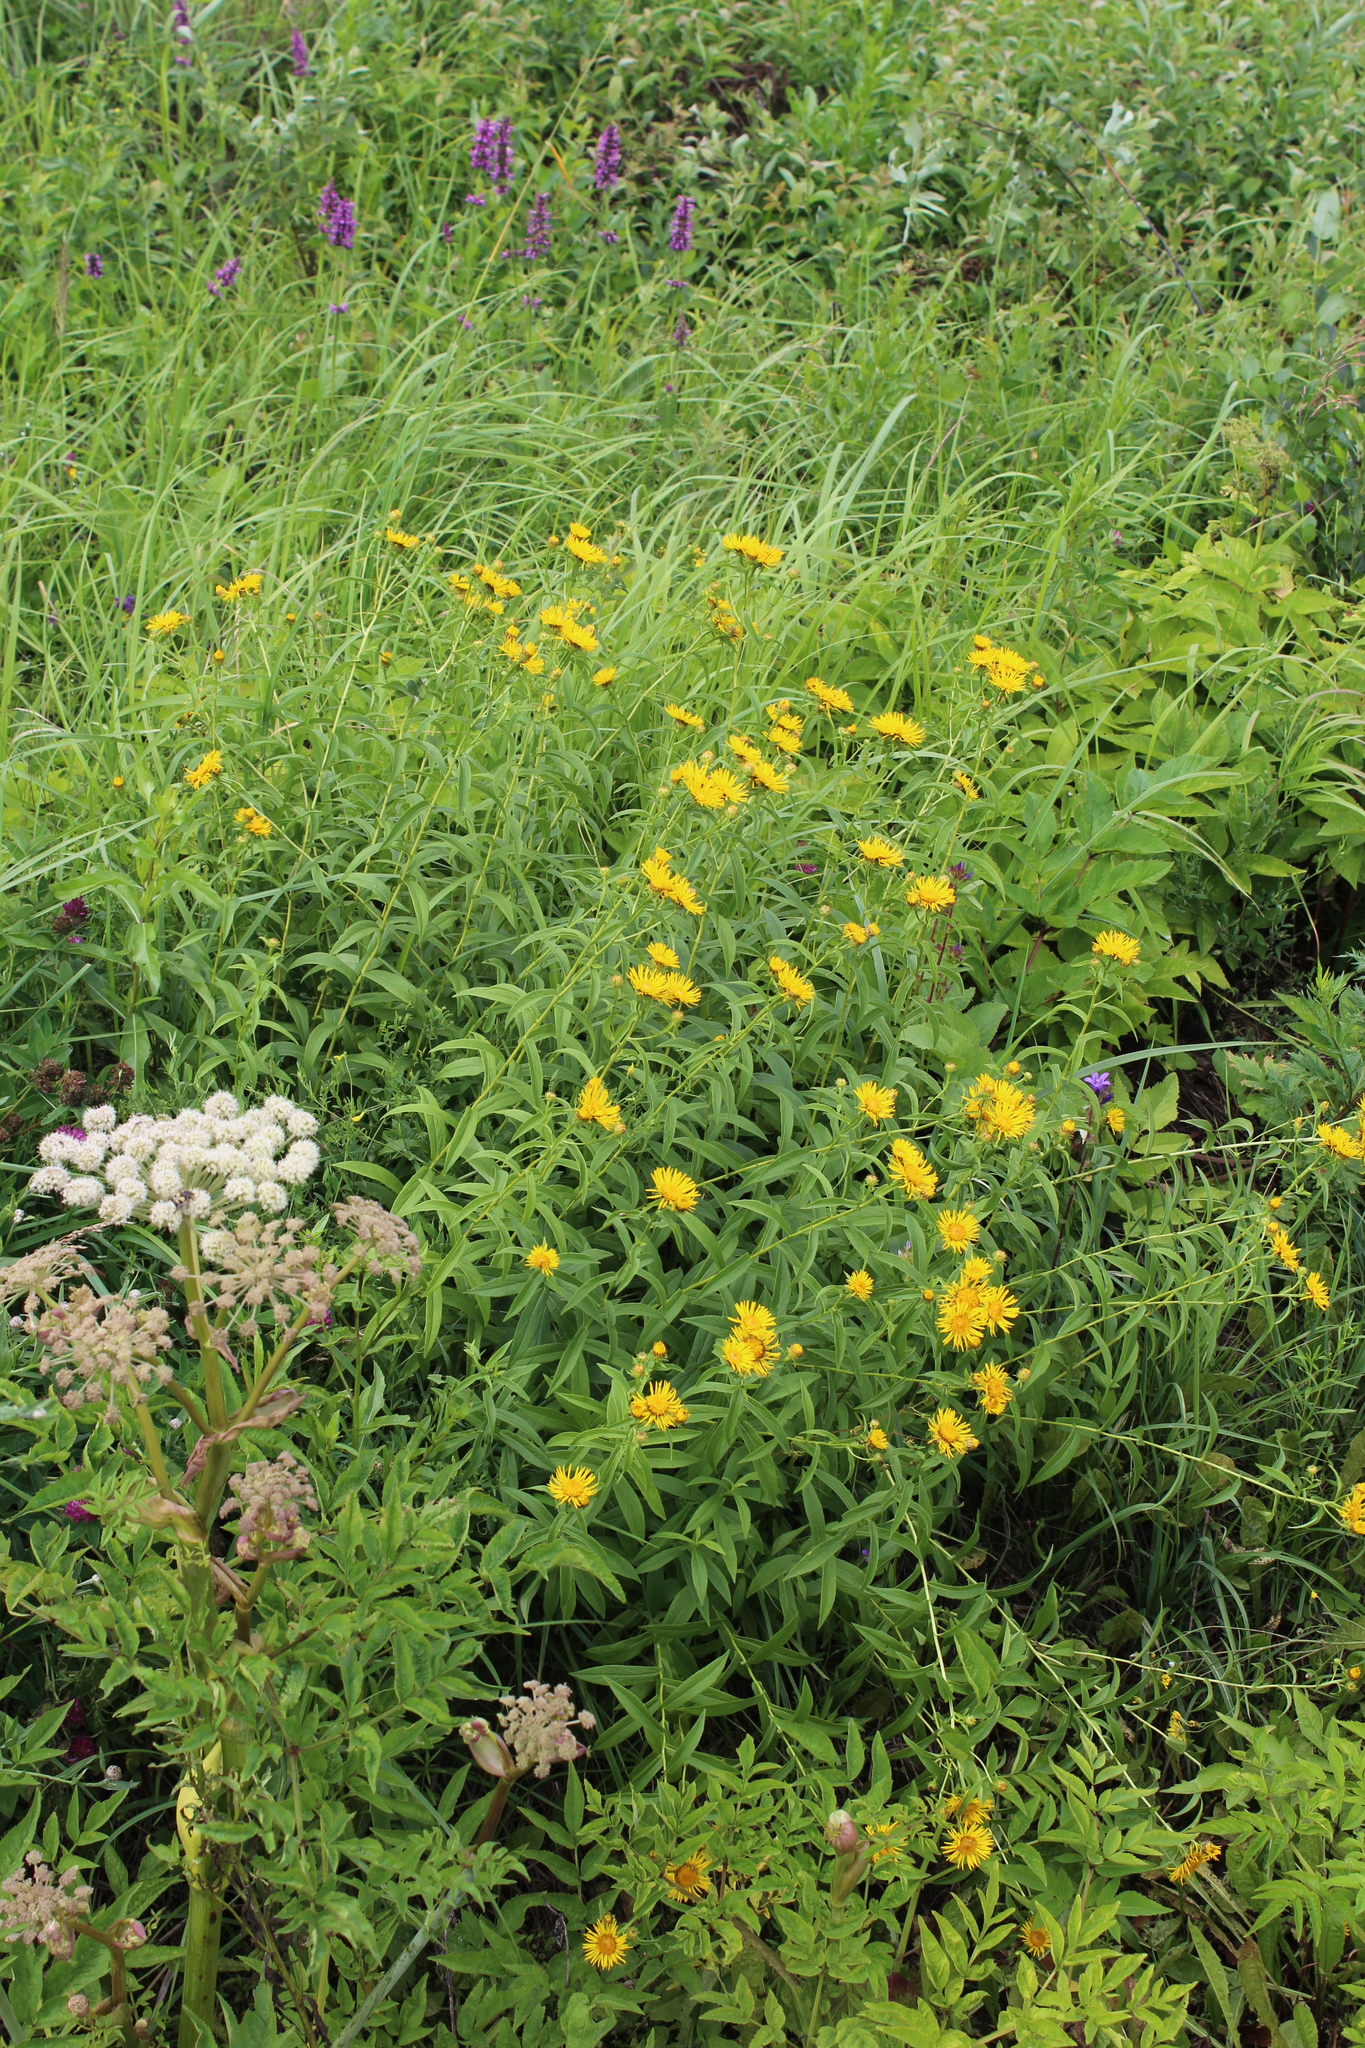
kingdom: Plantae
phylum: Tracheophyta
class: Magnoliopsida
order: Asterales
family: Asteraceae
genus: Pentanema
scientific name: Pentanema salicinum
